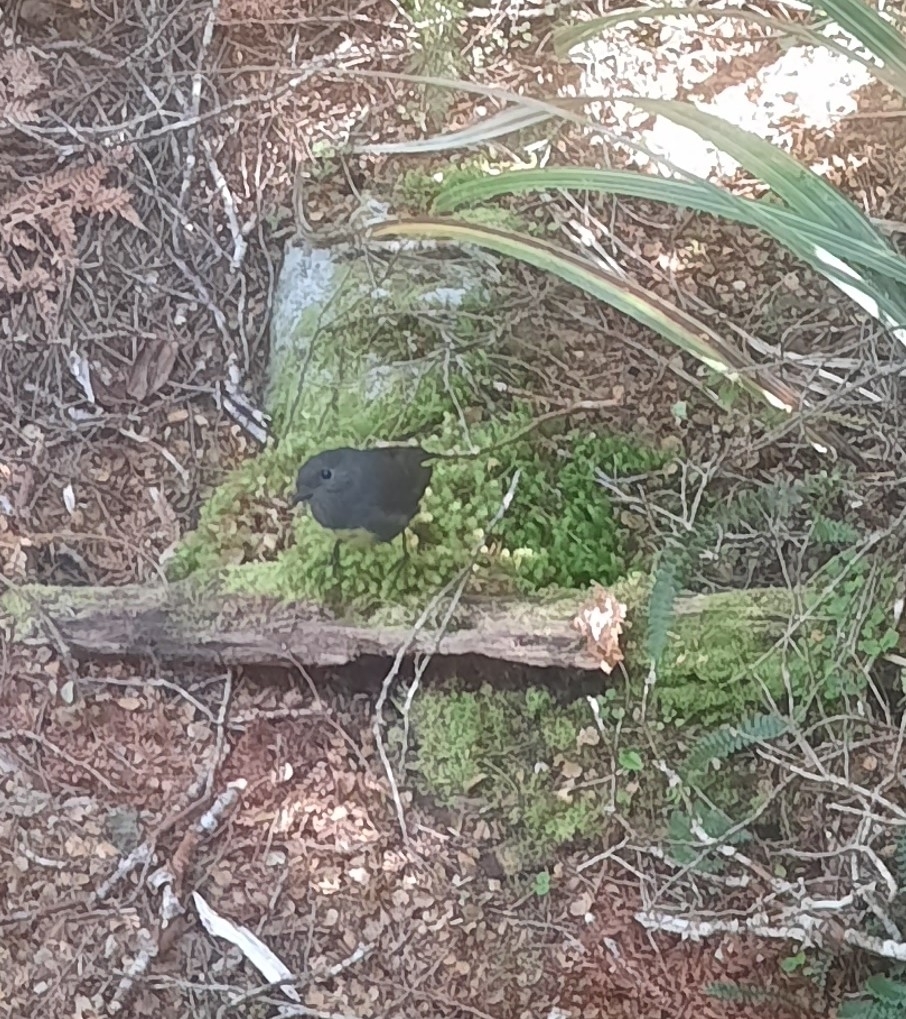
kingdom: Animalia
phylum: Chordata
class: Aves
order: Passeriformes
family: Petroicidae
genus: Petroica
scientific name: Petroica australis
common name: New zealand robin
